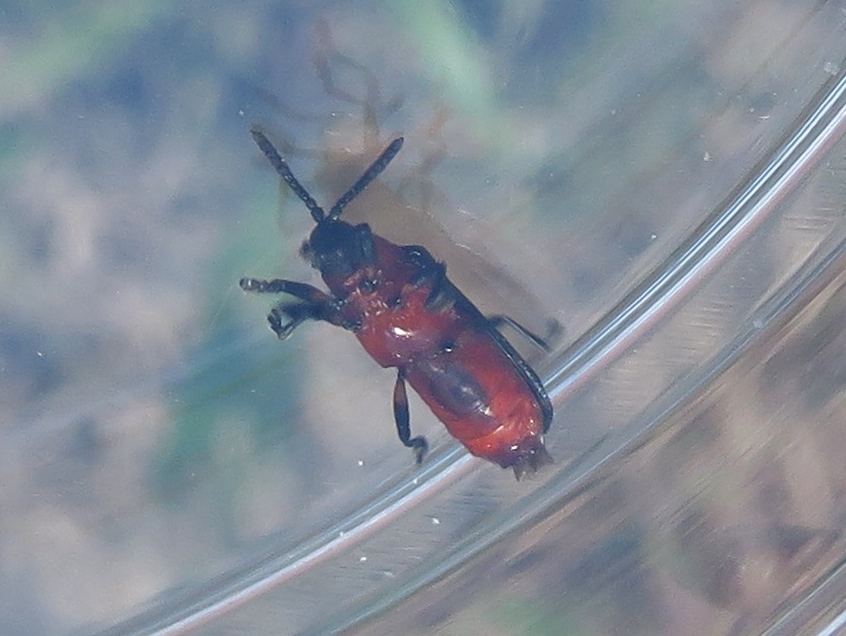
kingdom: Animalia
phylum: Arthropoda
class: Insecta
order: Coleoptera
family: Chrysomelidae
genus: Chalepus
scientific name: Chalepus bicolor
